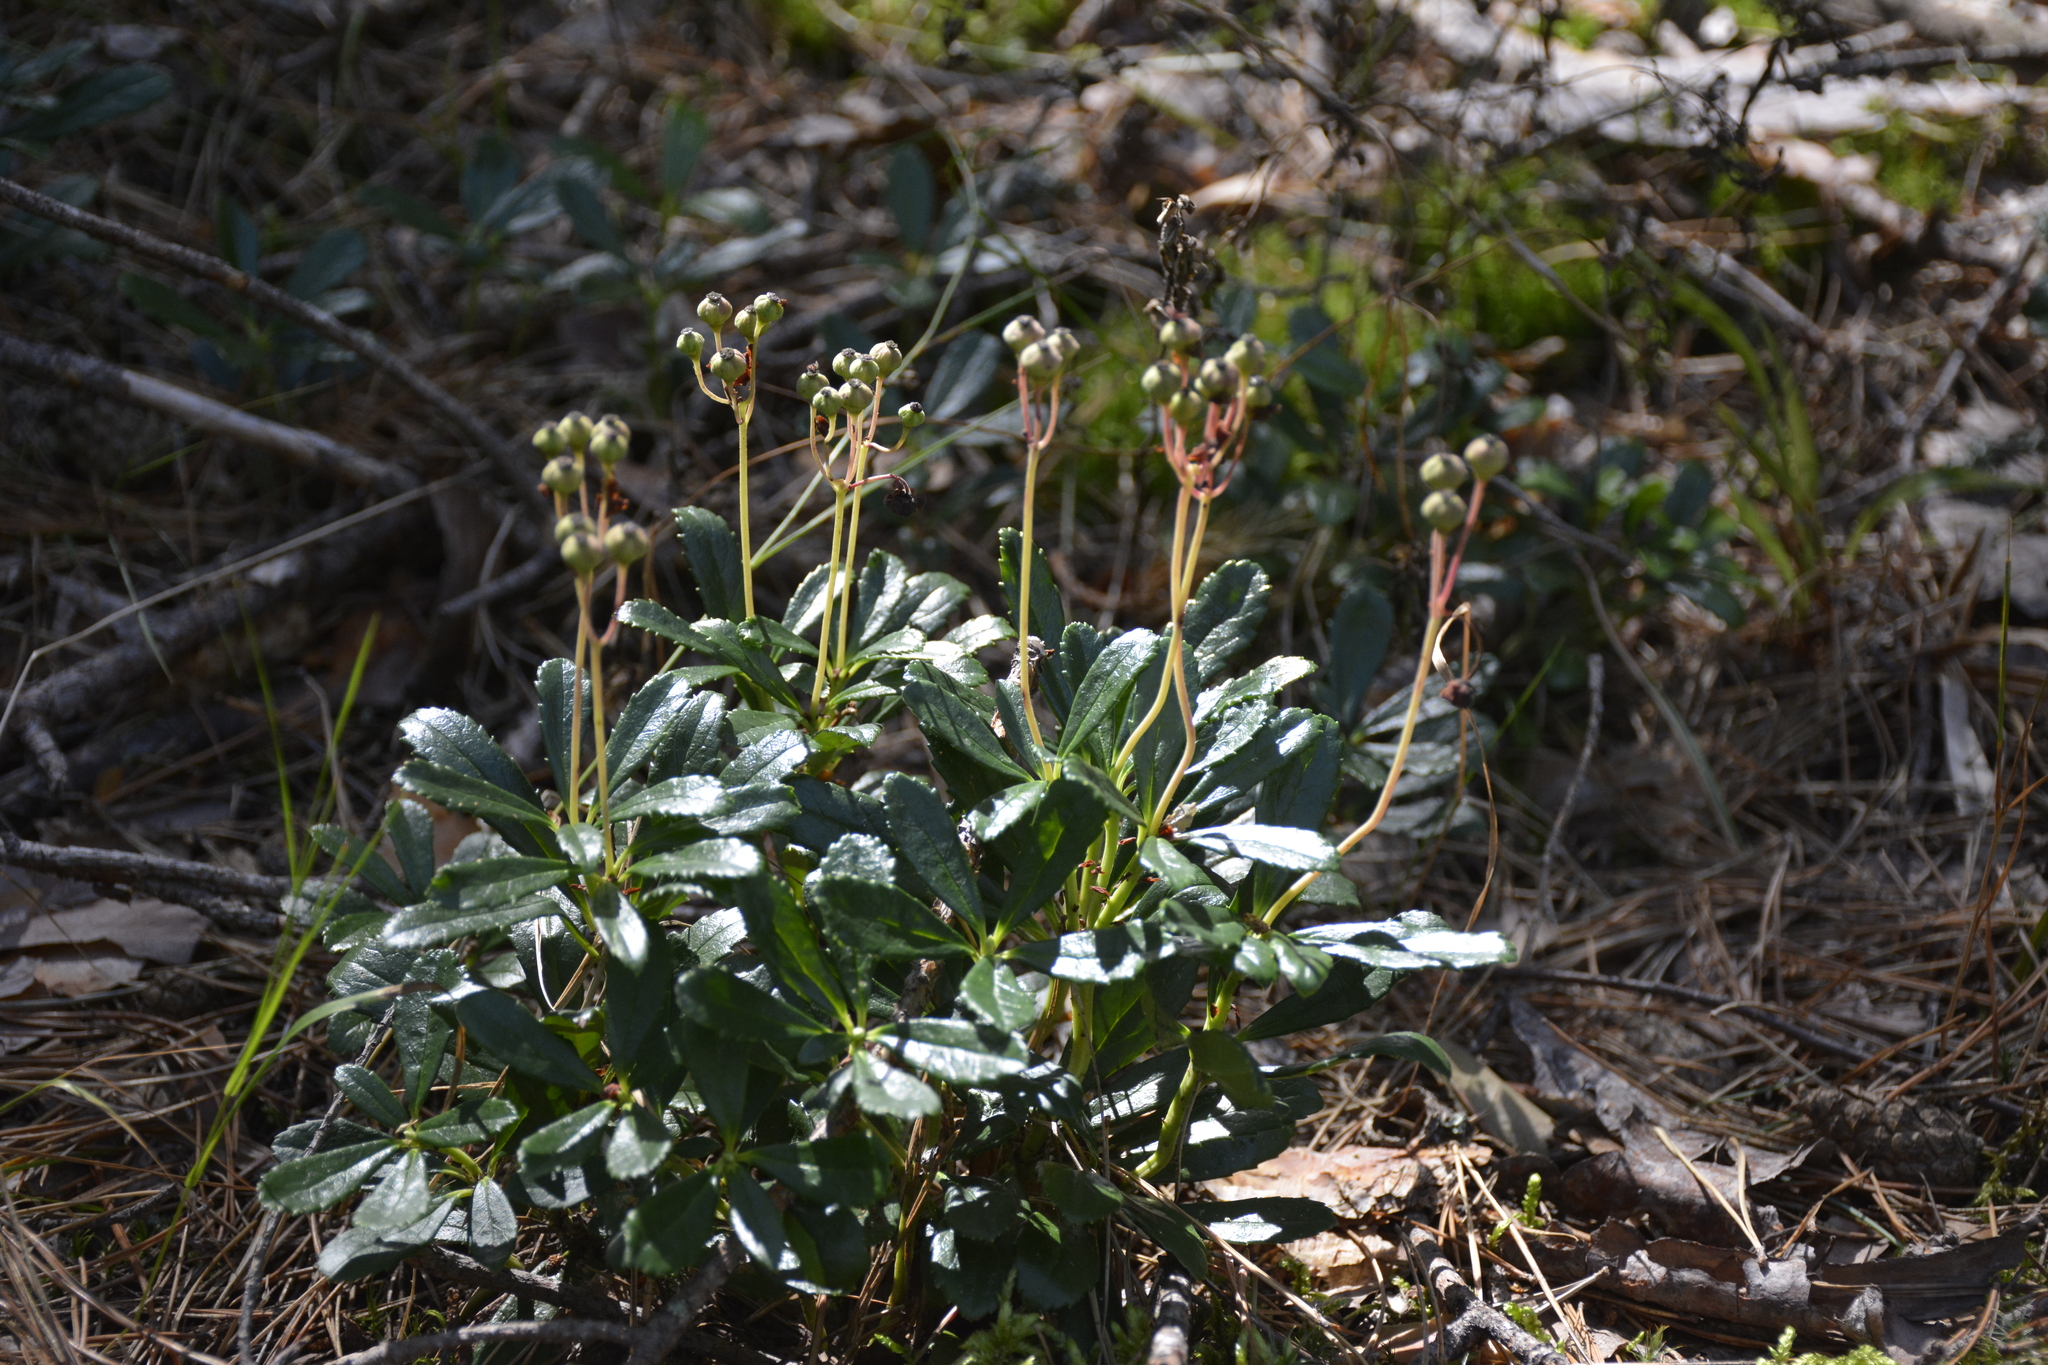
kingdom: Plantae
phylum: Tracheophyta
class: Magnoliopsida
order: Ericales
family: Ericaceae
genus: Chimaphila
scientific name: Chimaphila umbellata
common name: Pipsissewa
